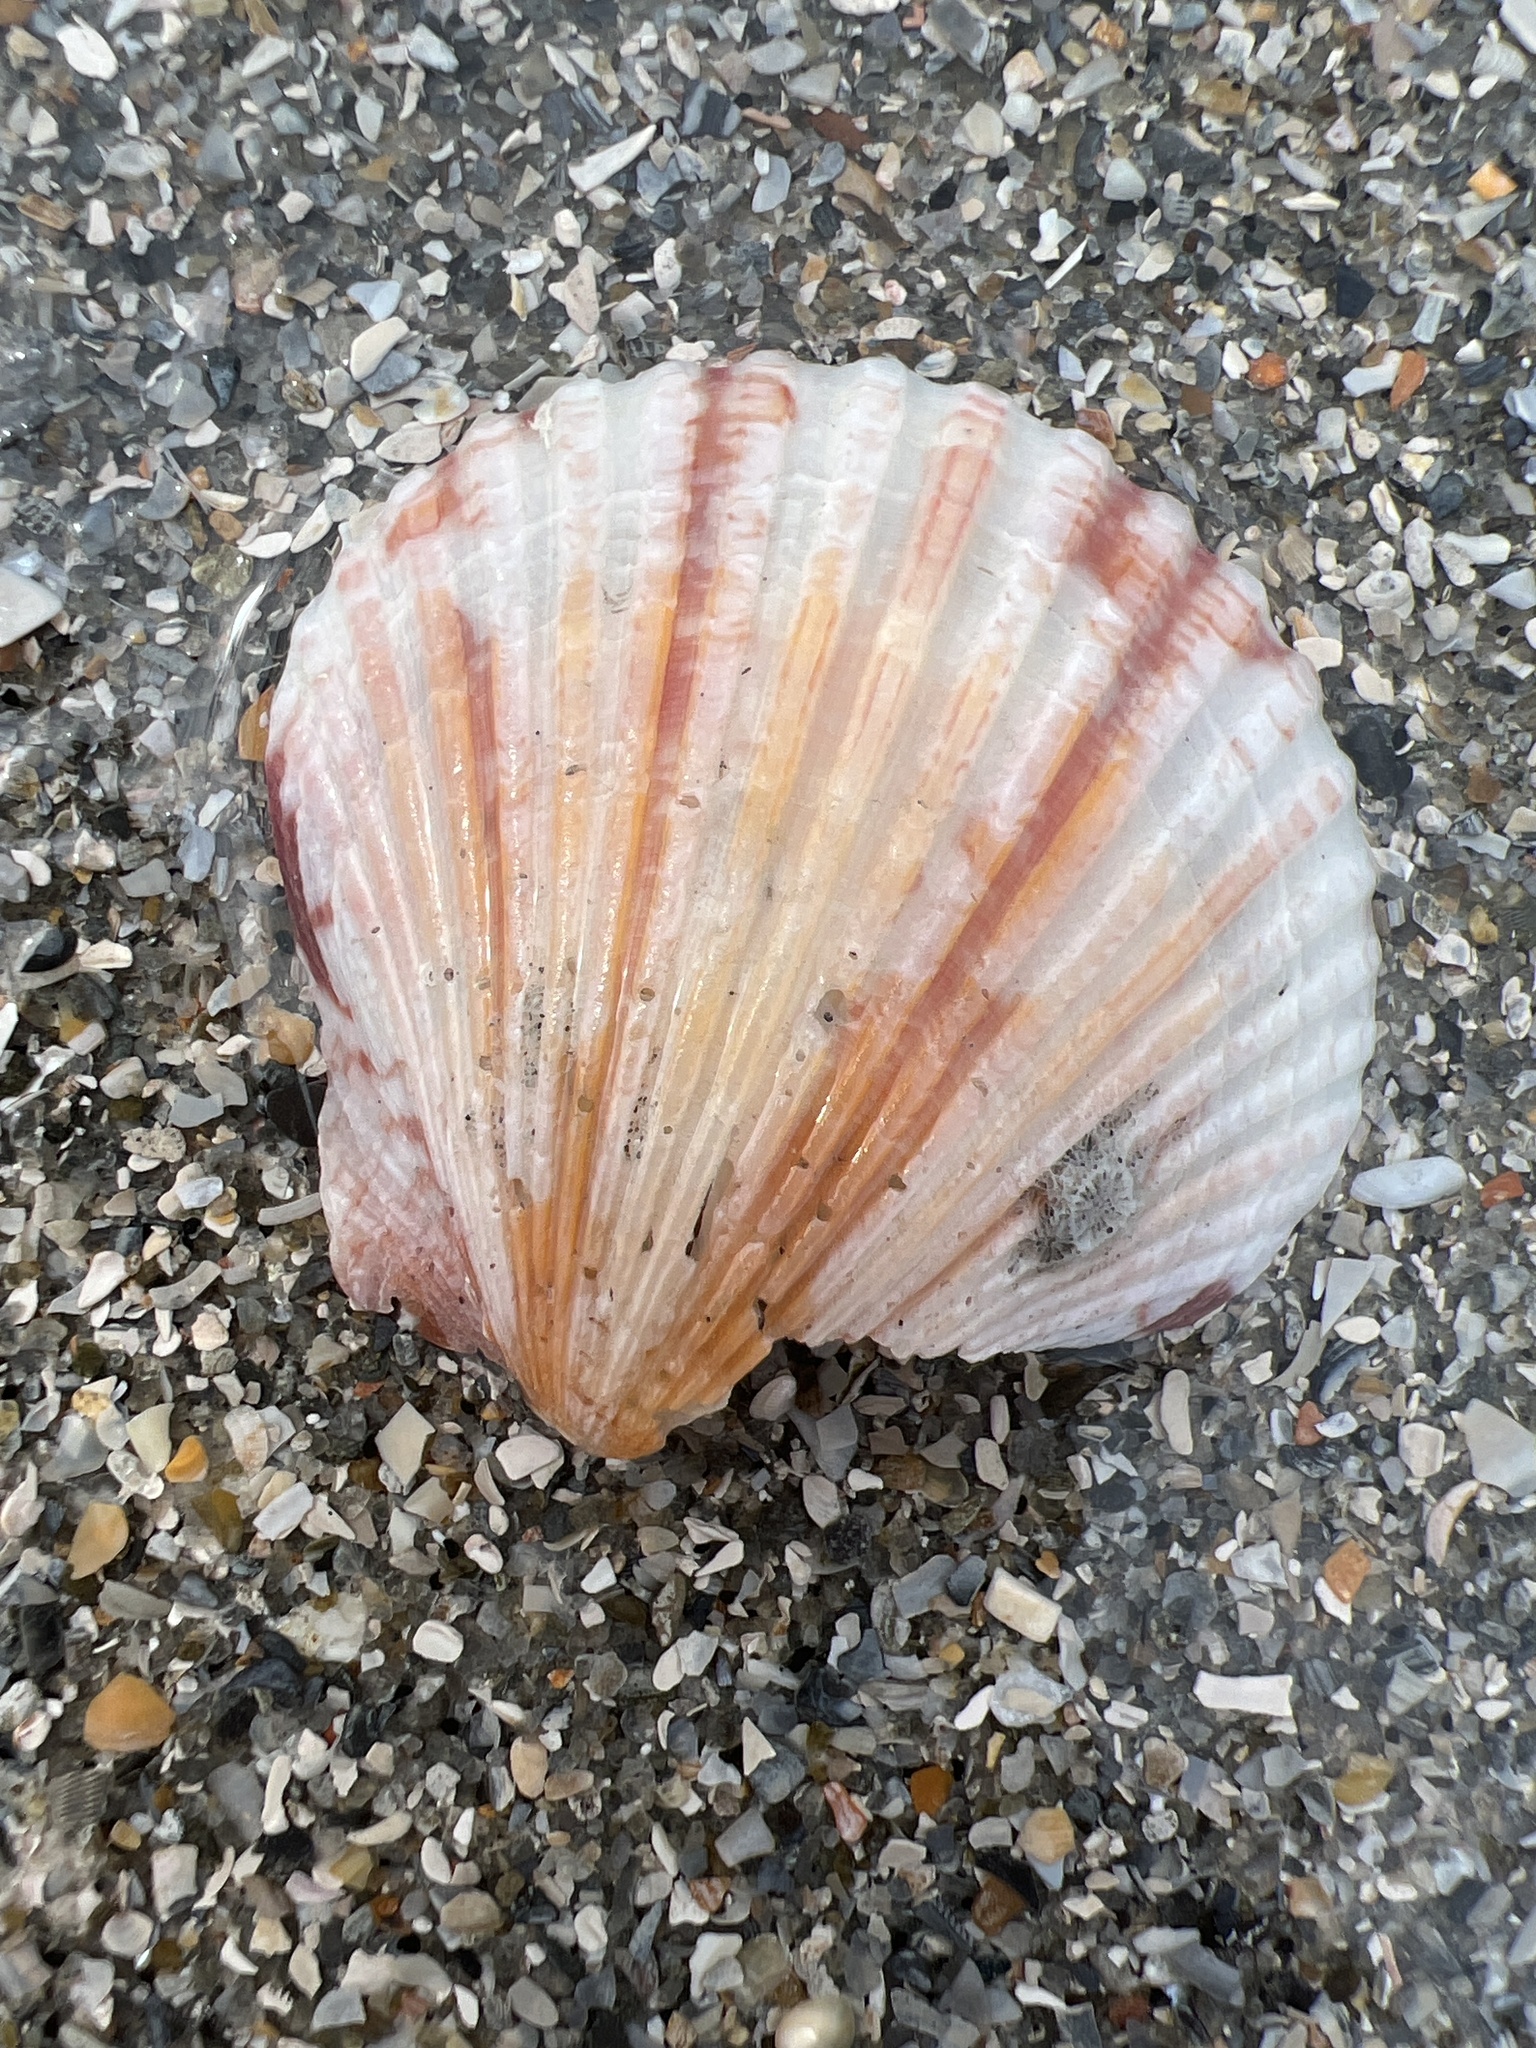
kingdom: Animalia
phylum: Mollusca
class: Bivalvia
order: Pectinida
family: Pectinidae
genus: Argopecten
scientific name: Argopecten gibbus
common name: Atlantic calico scallop
